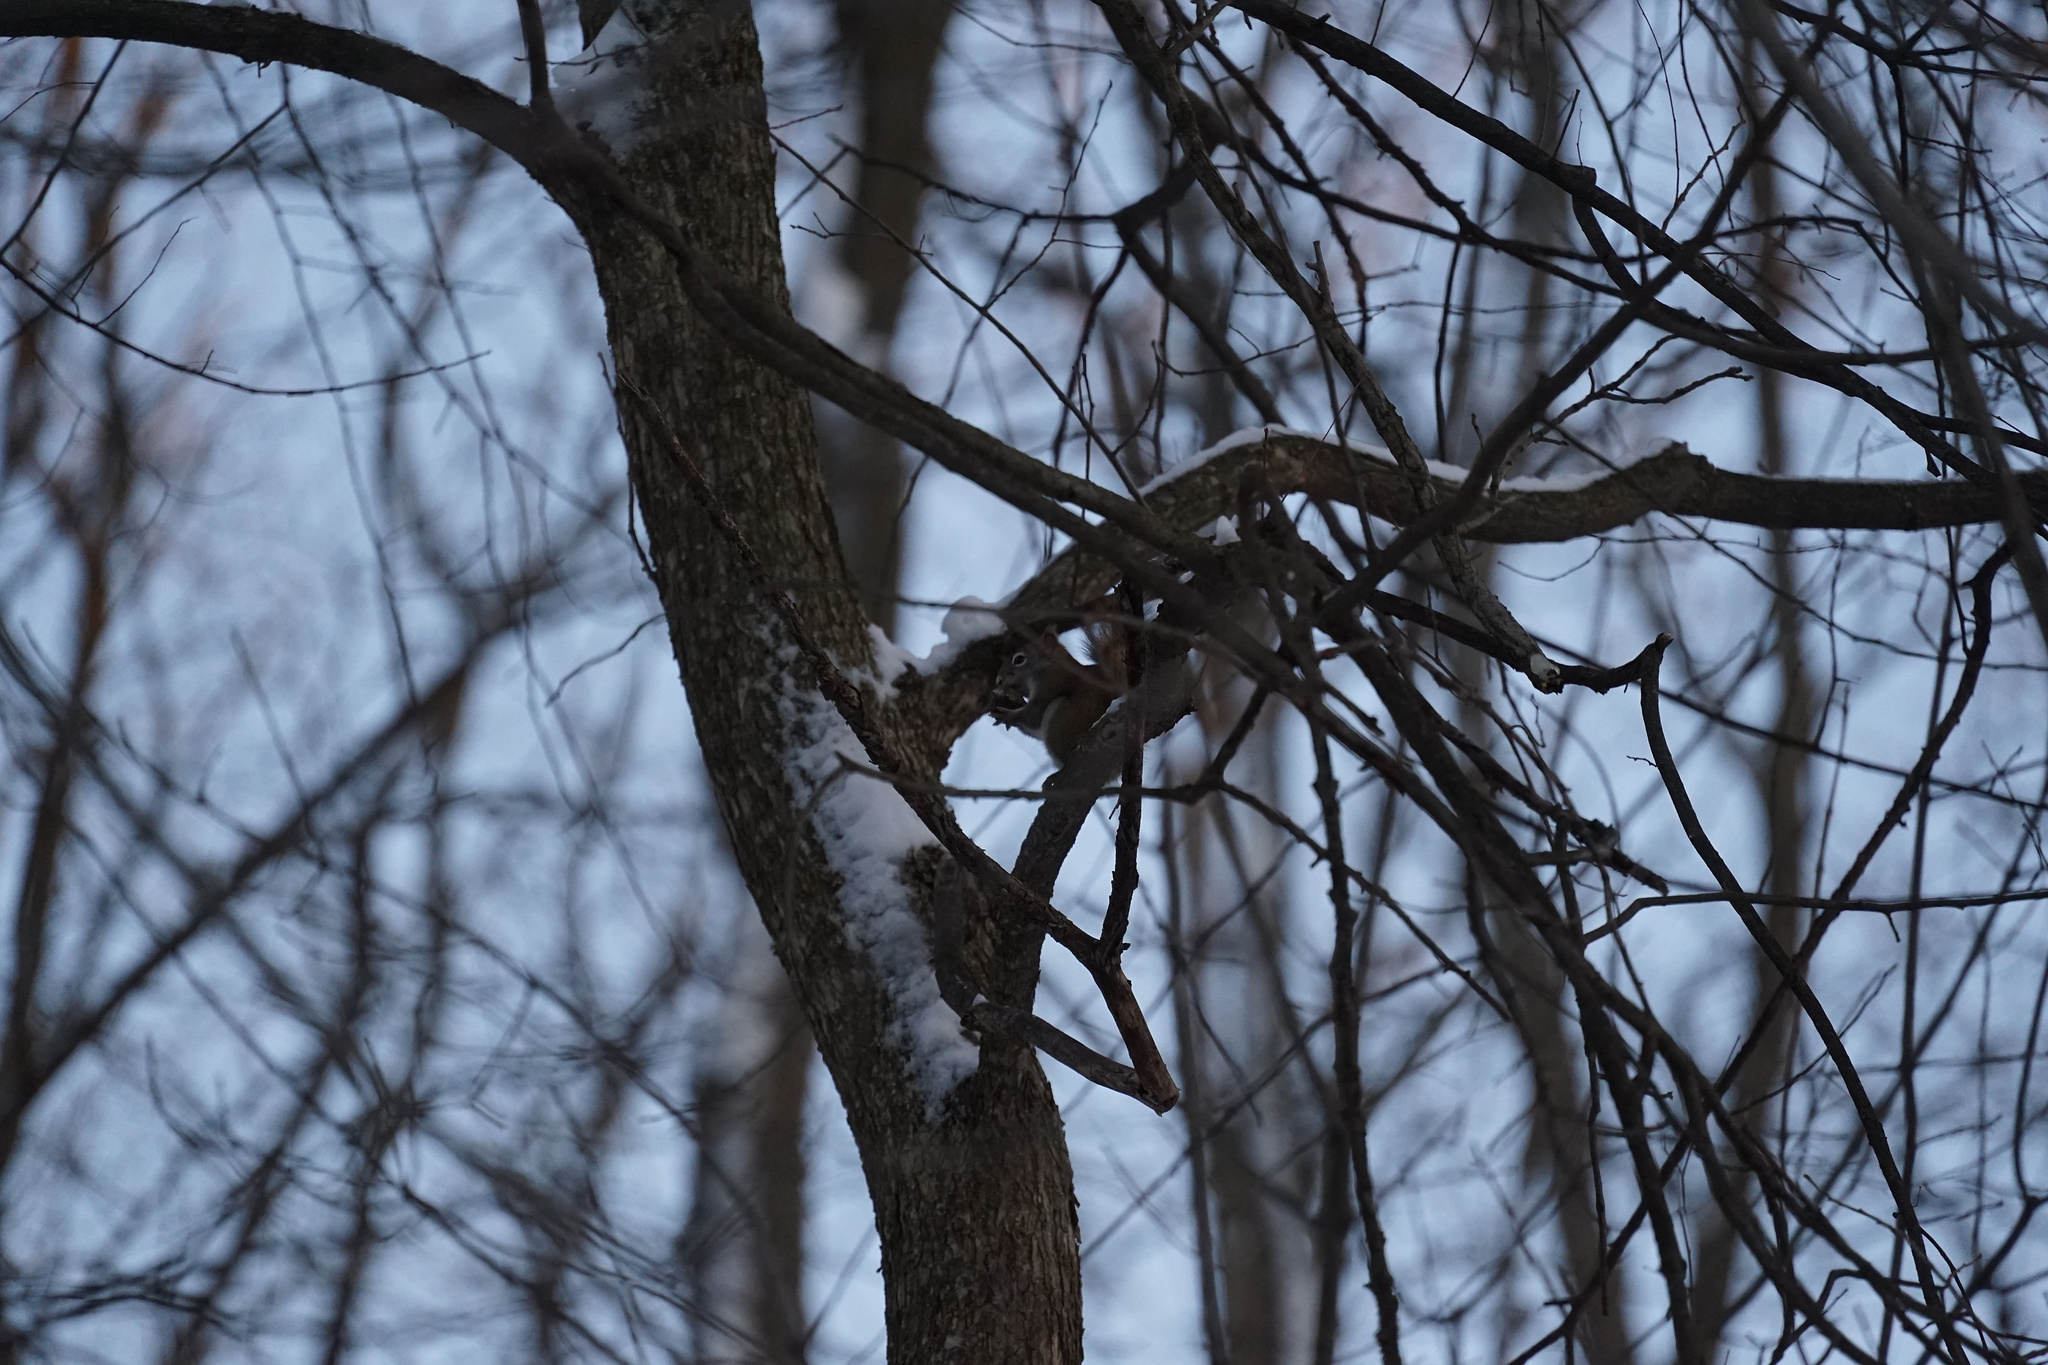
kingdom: Animalia
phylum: Chordata
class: Mammalia
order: Rodentia
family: Sciuridae
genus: Tamiasciurus
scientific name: Tamiasciurus hudsonicus
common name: Red squirrel
